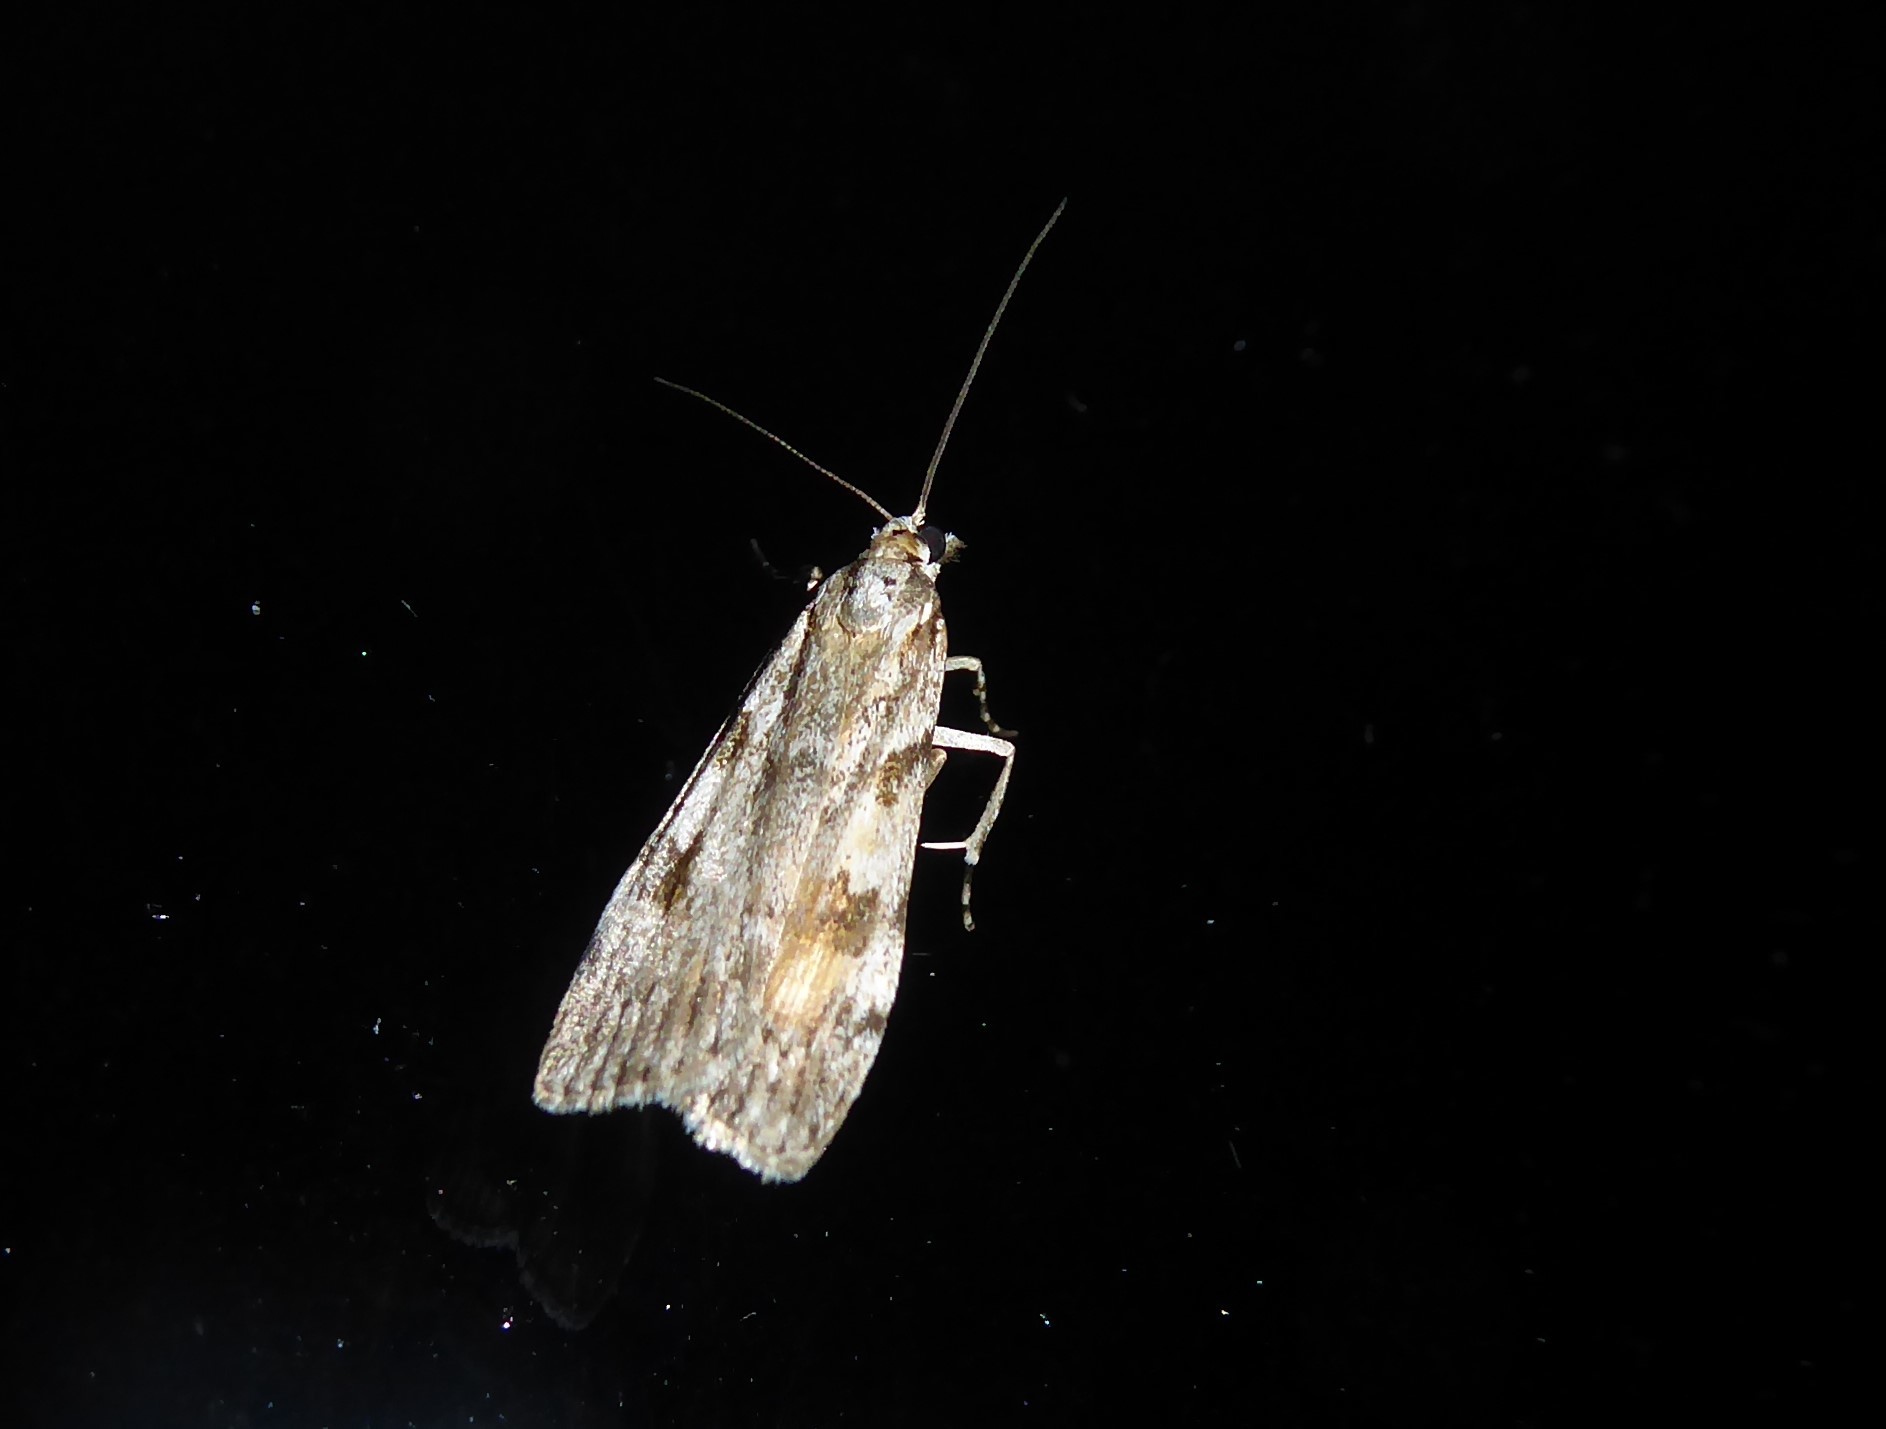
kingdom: Animalia
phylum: Arthropoda
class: Insecta
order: Lepidoptera
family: Crambidae
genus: Scoparia
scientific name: Scoparia halopis
